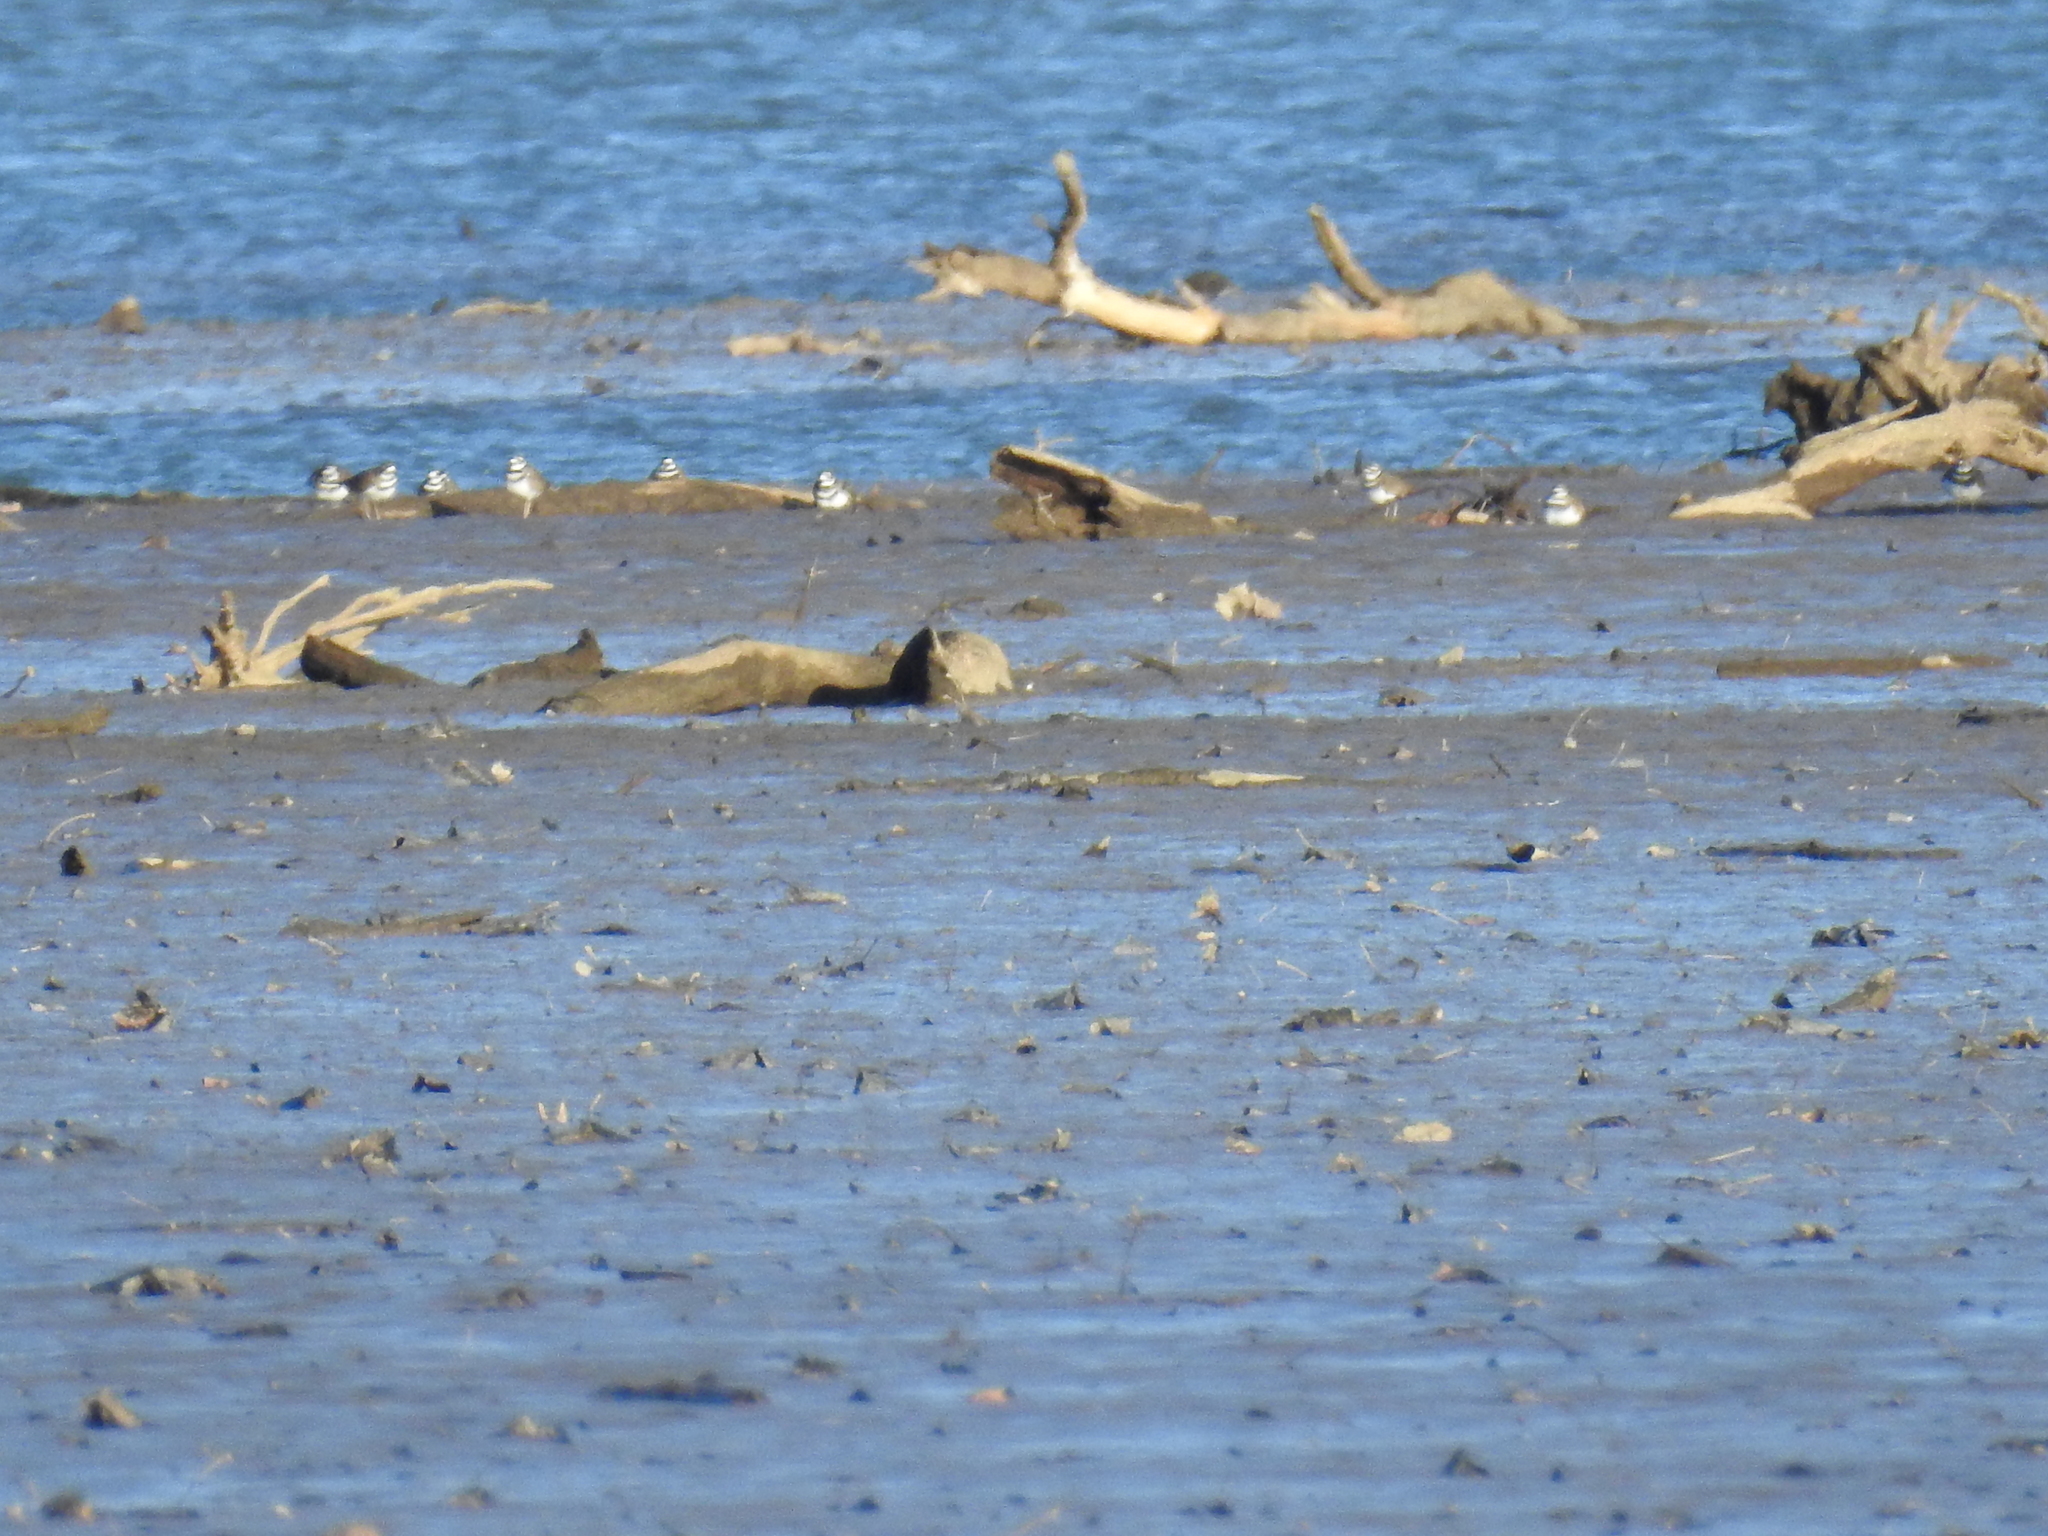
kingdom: Animalia
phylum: Chordata
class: Aves
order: Charadriiformes
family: Charadriidae
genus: Charadrius
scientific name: Charadrius vociferus
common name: Killdeer
